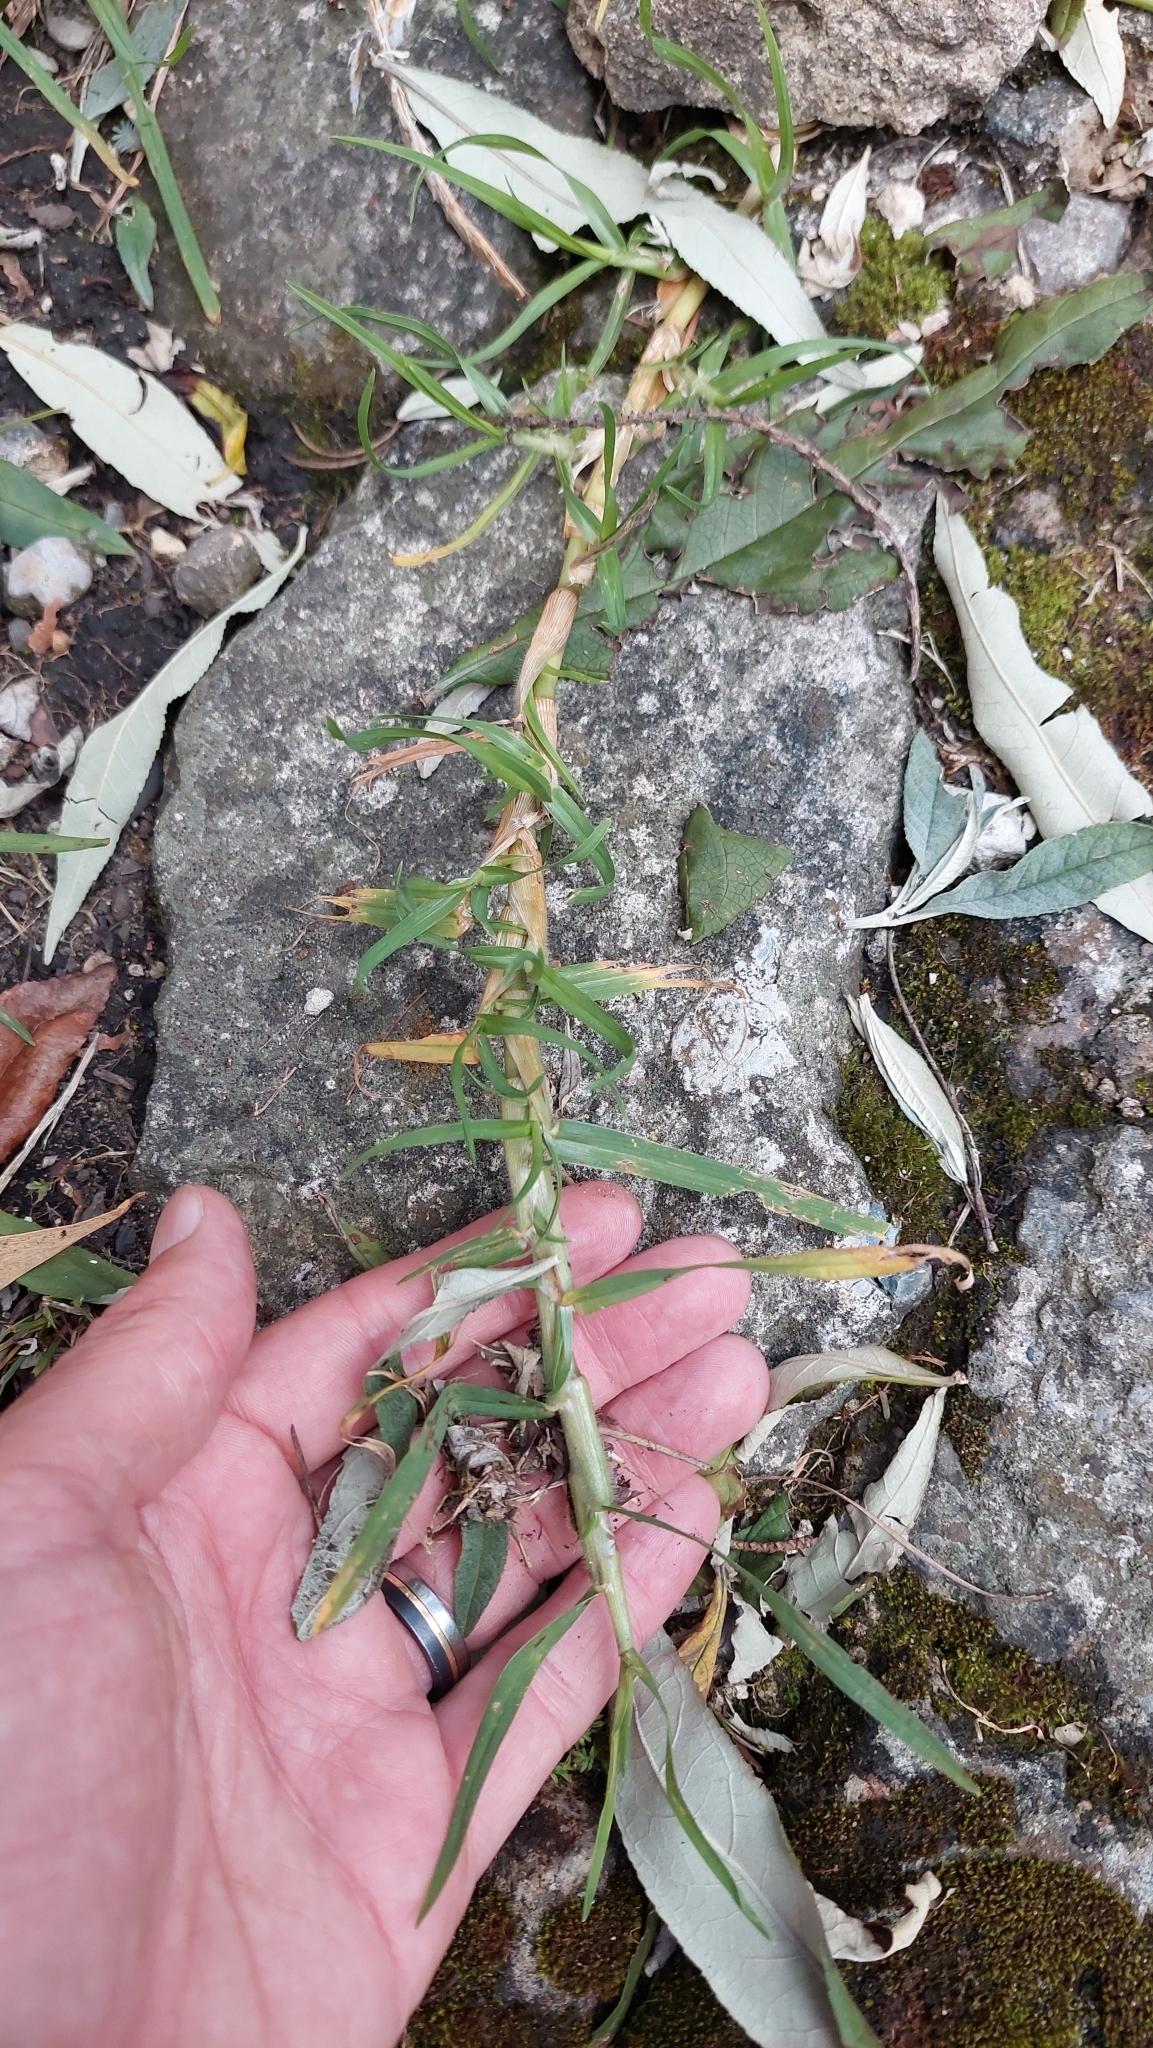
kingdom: Plantae
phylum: Tracheophyta
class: Liliopsida
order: Poales
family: Poaceae
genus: Cenchrus
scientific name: Cenchrus clandestinus
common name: Kikuyugrass
